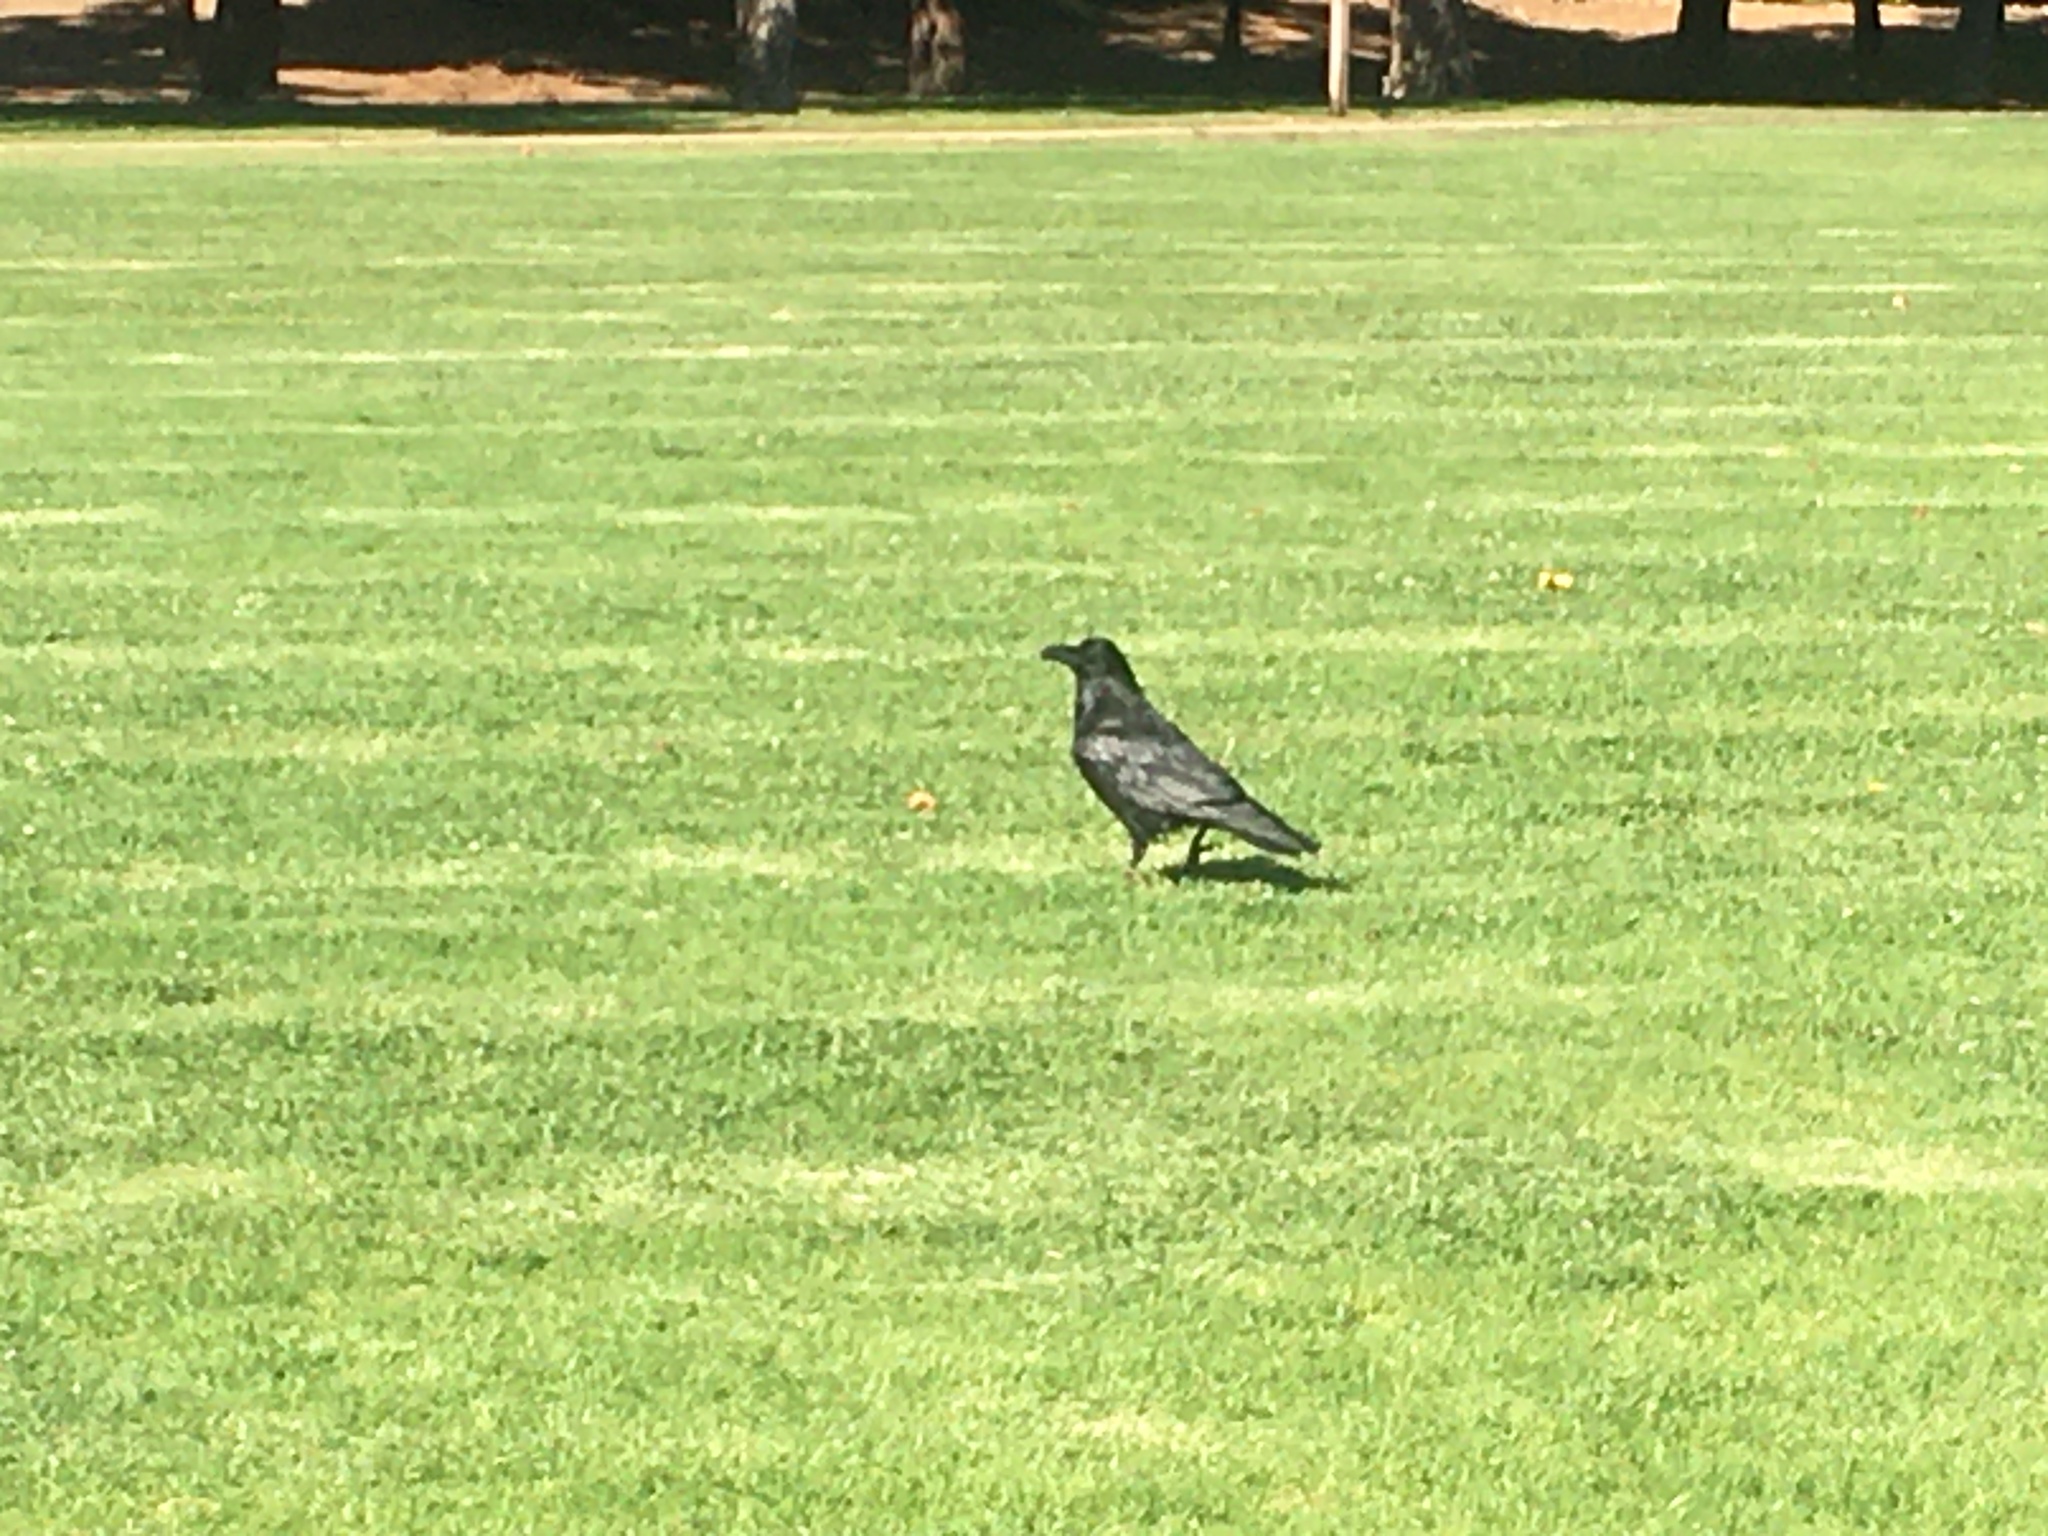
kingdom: Animalia
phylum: Chordata
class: Aves
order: Passeriformes
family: Corvidae
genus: Corvus
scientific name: Corvus corax
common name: Common raven
